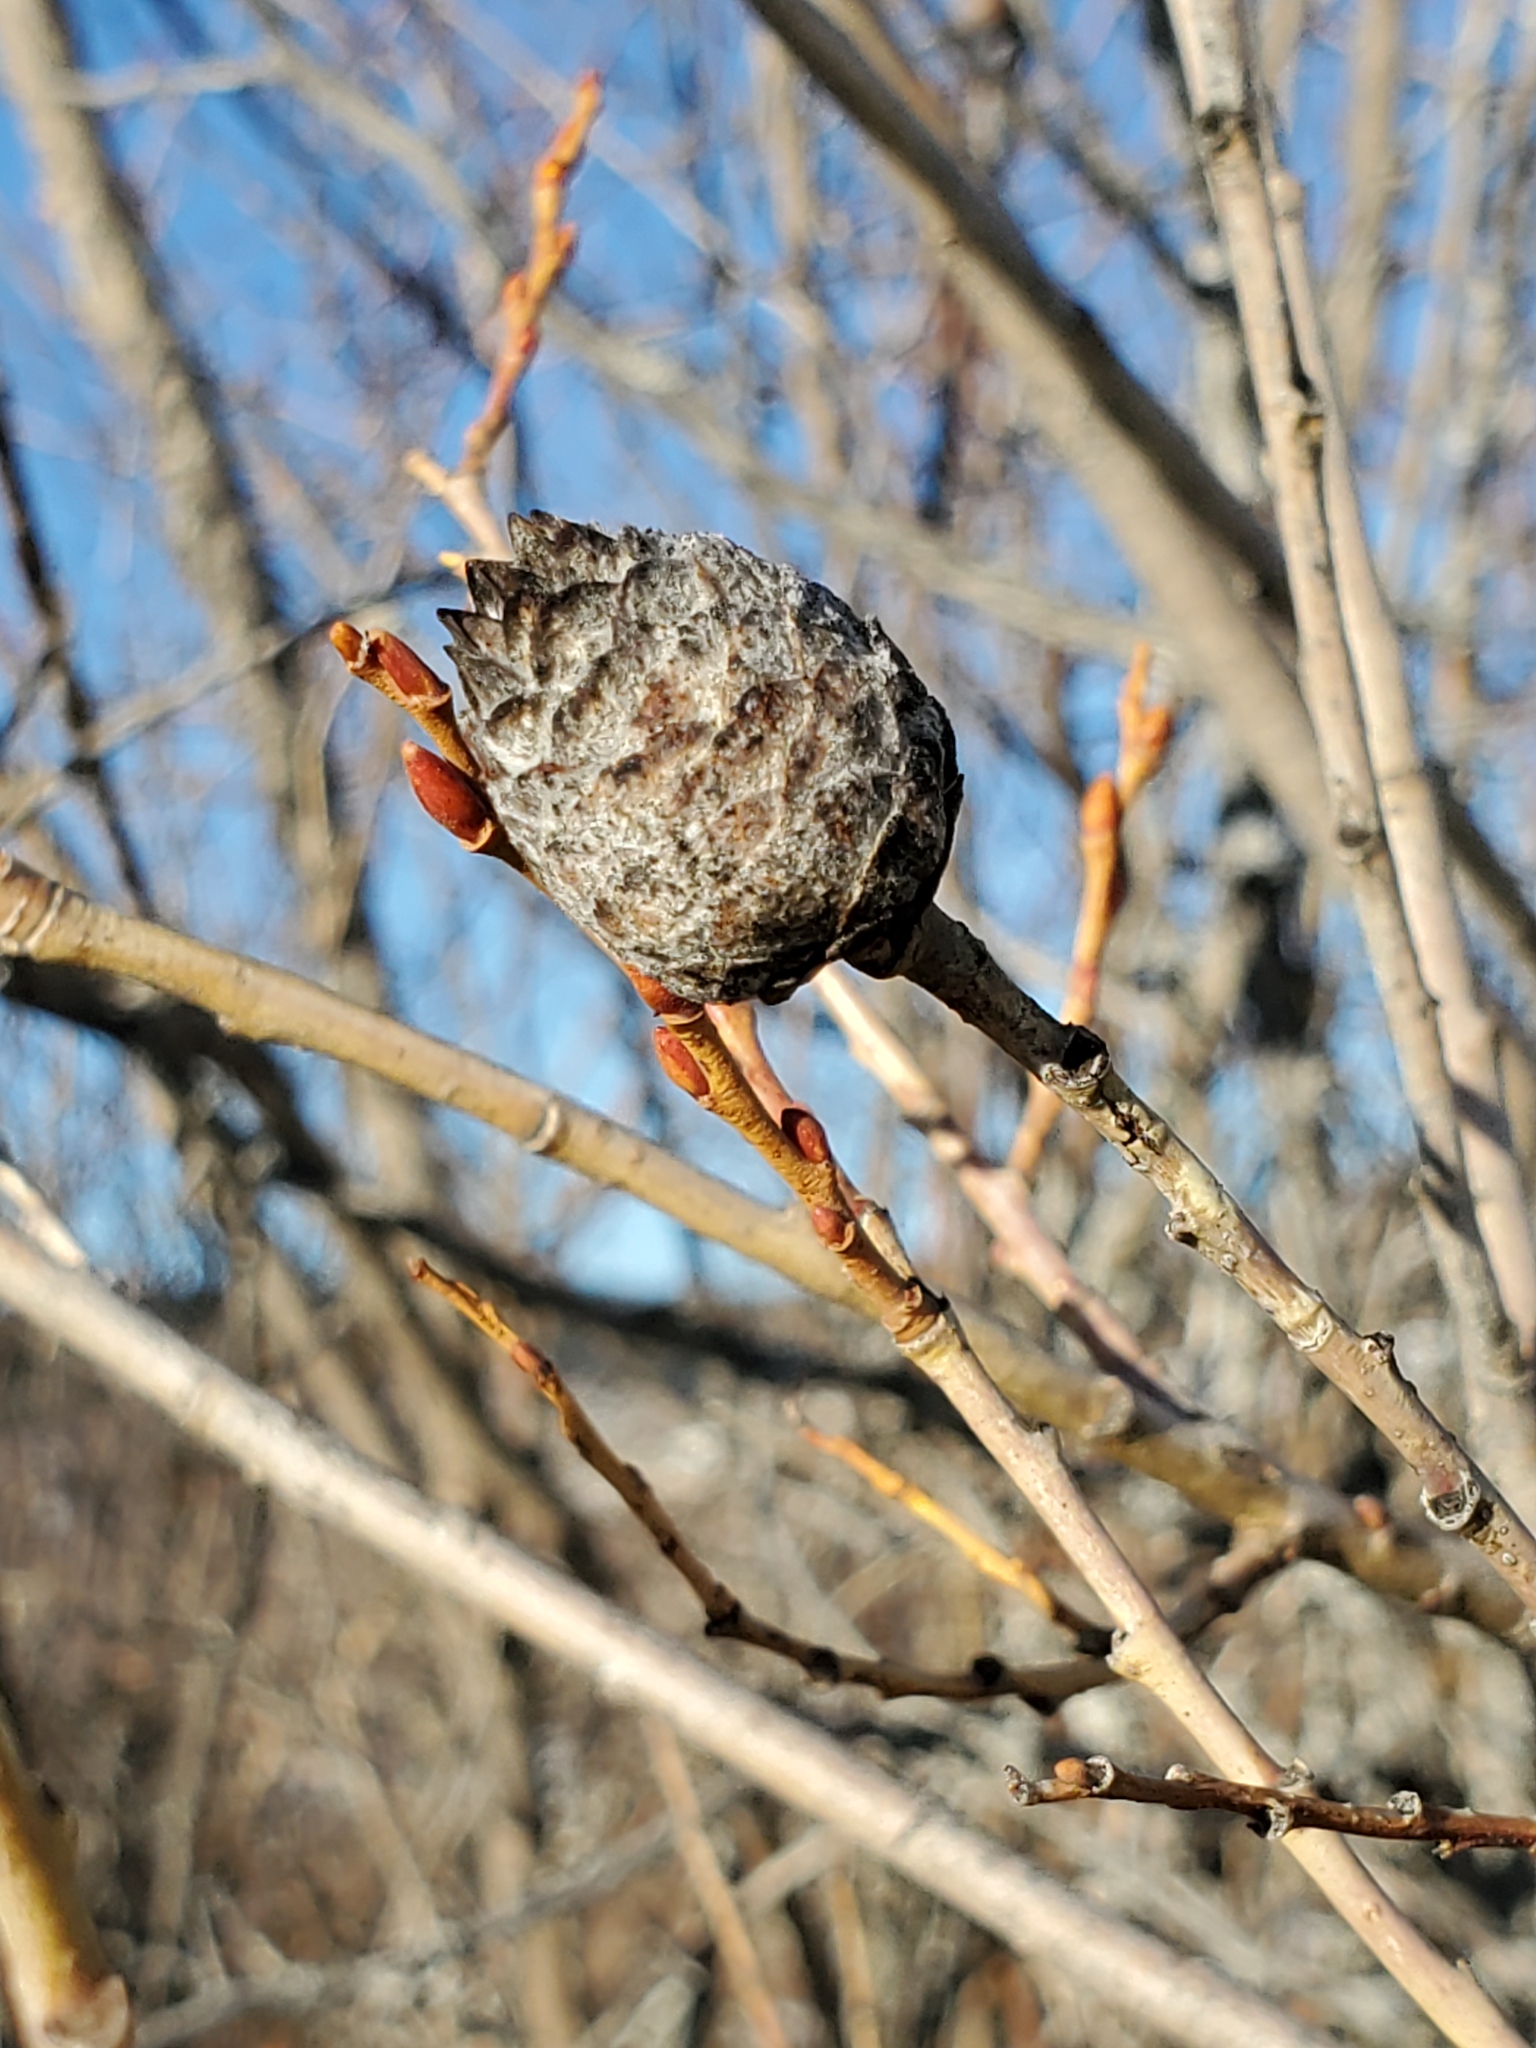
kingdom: Animalia
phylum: Arthropoda
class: Insecta
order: Diptera
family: Cecidomyiidae
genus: Rabdophaga
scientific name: Rabdophaga strobiloides
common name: Willow pinecone gall midge
